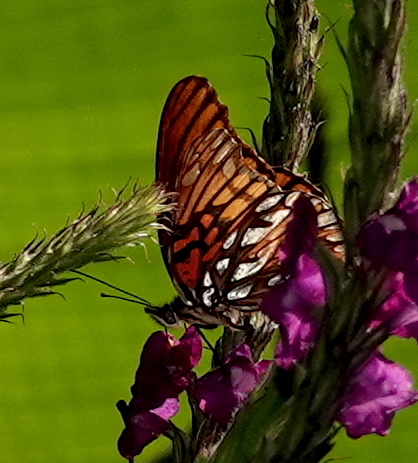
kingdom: Animalia
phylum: Arthropoda
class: Insecta
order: Lepidoptera
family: Nymphalidae
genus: Dione
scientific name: Dione moneta
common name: Mexican silverspot
